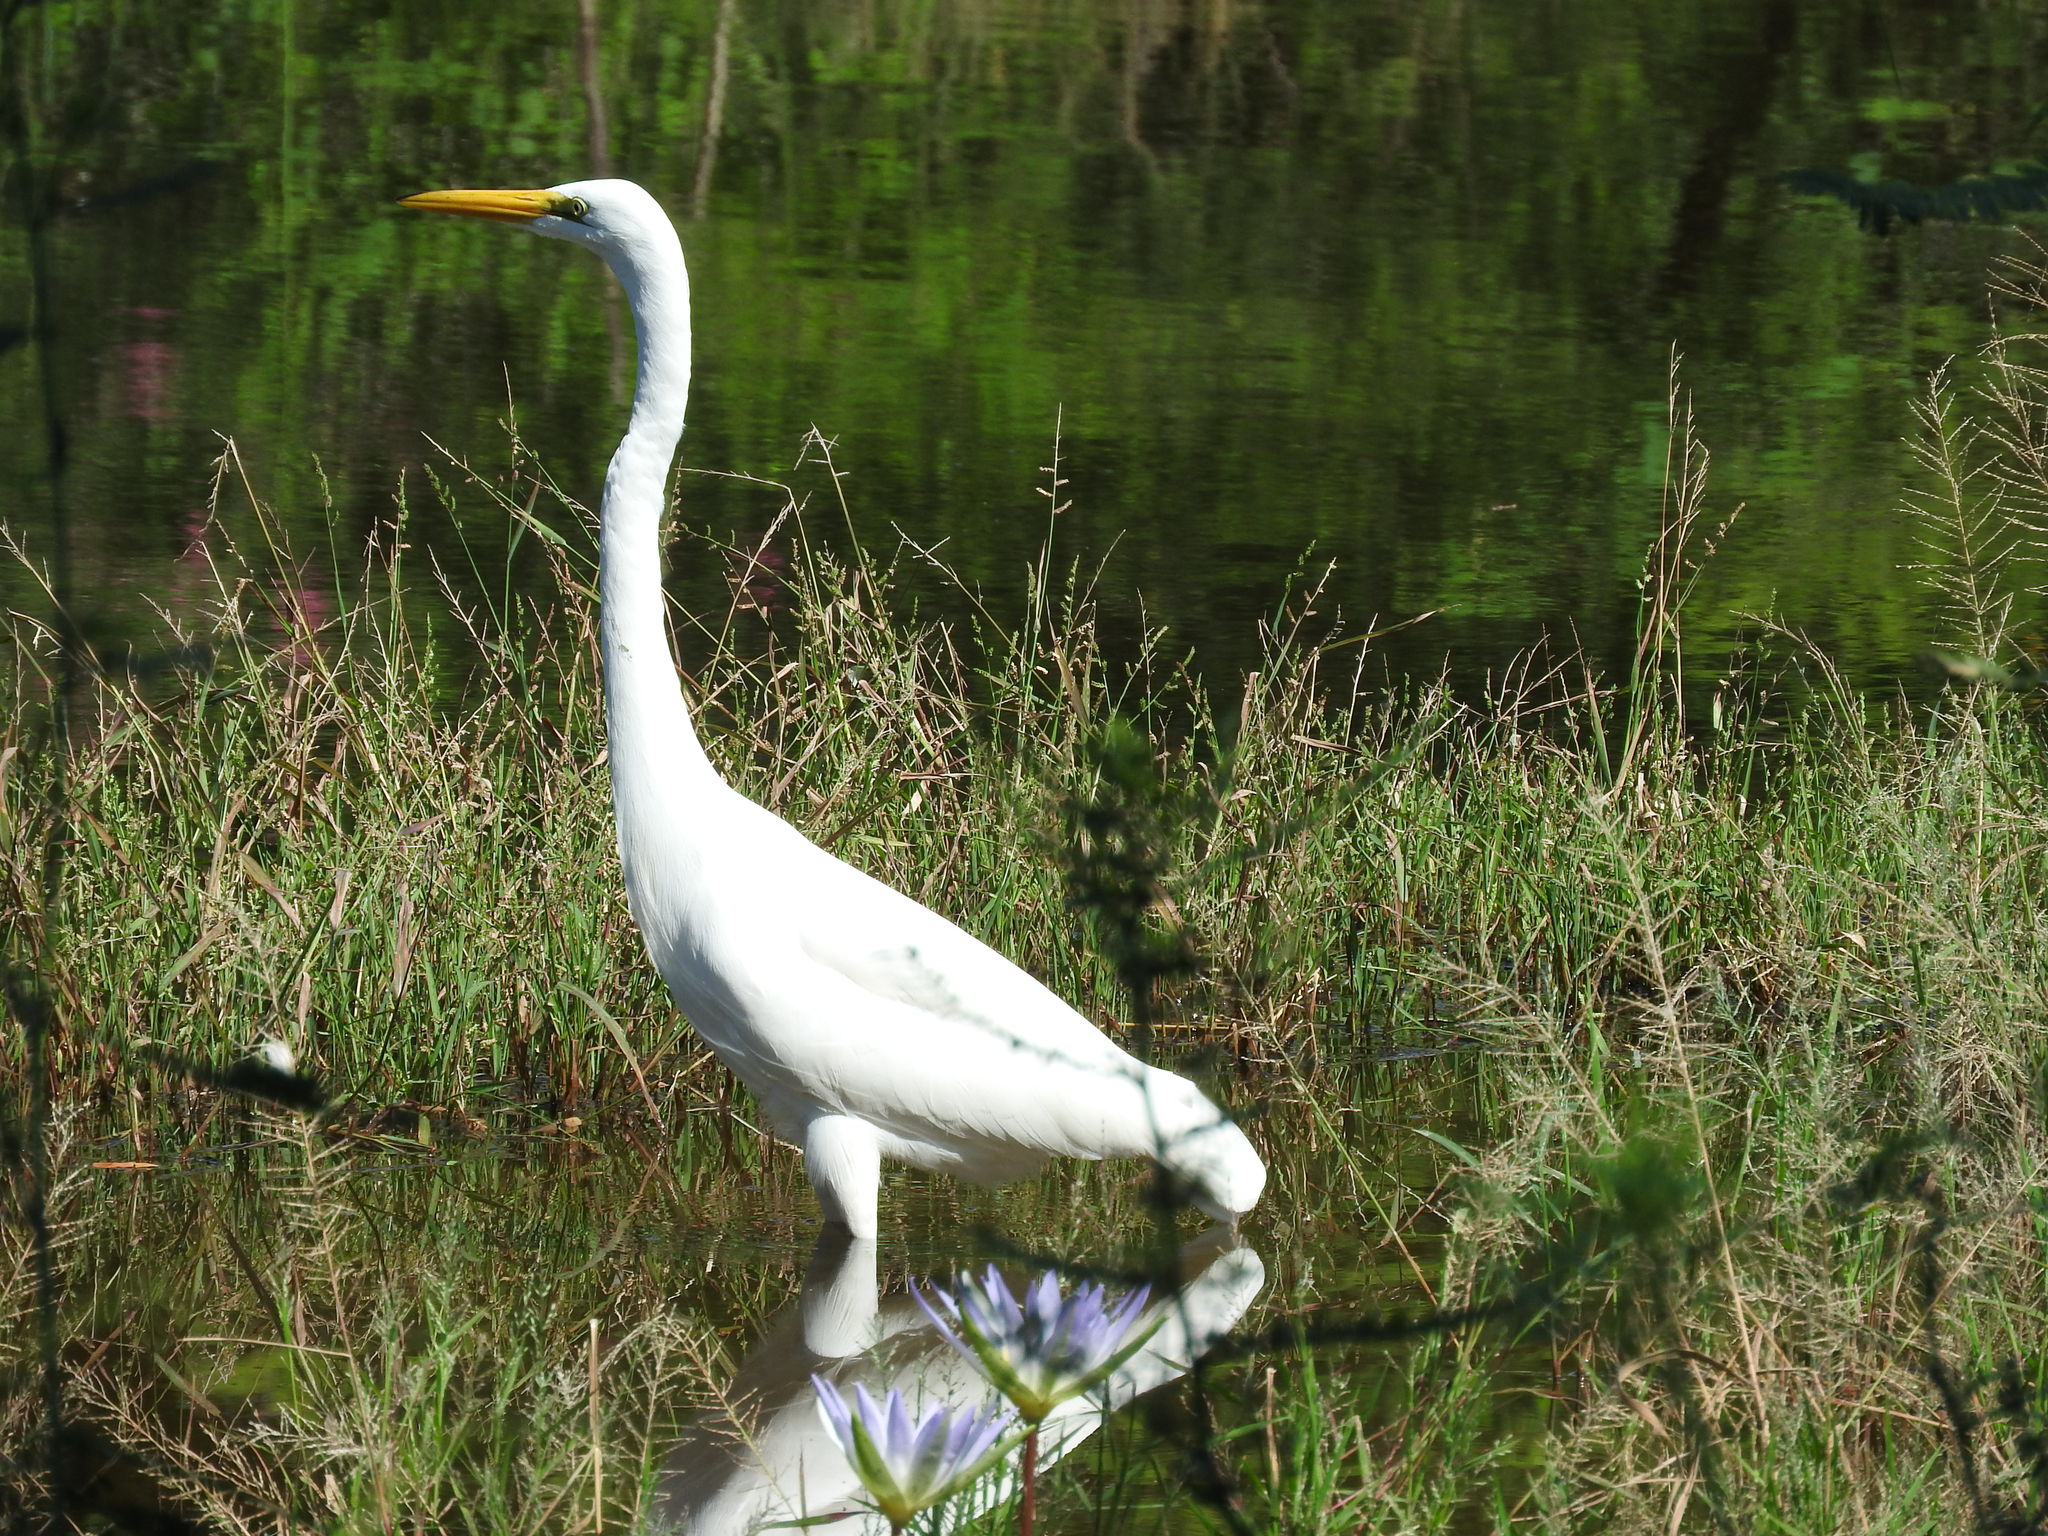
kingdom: Animalia
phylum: Chordata
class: Aves
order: Pelecaniformes
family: Ardeidae
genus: Ardea
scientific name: Ardea alba
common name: Great egret
